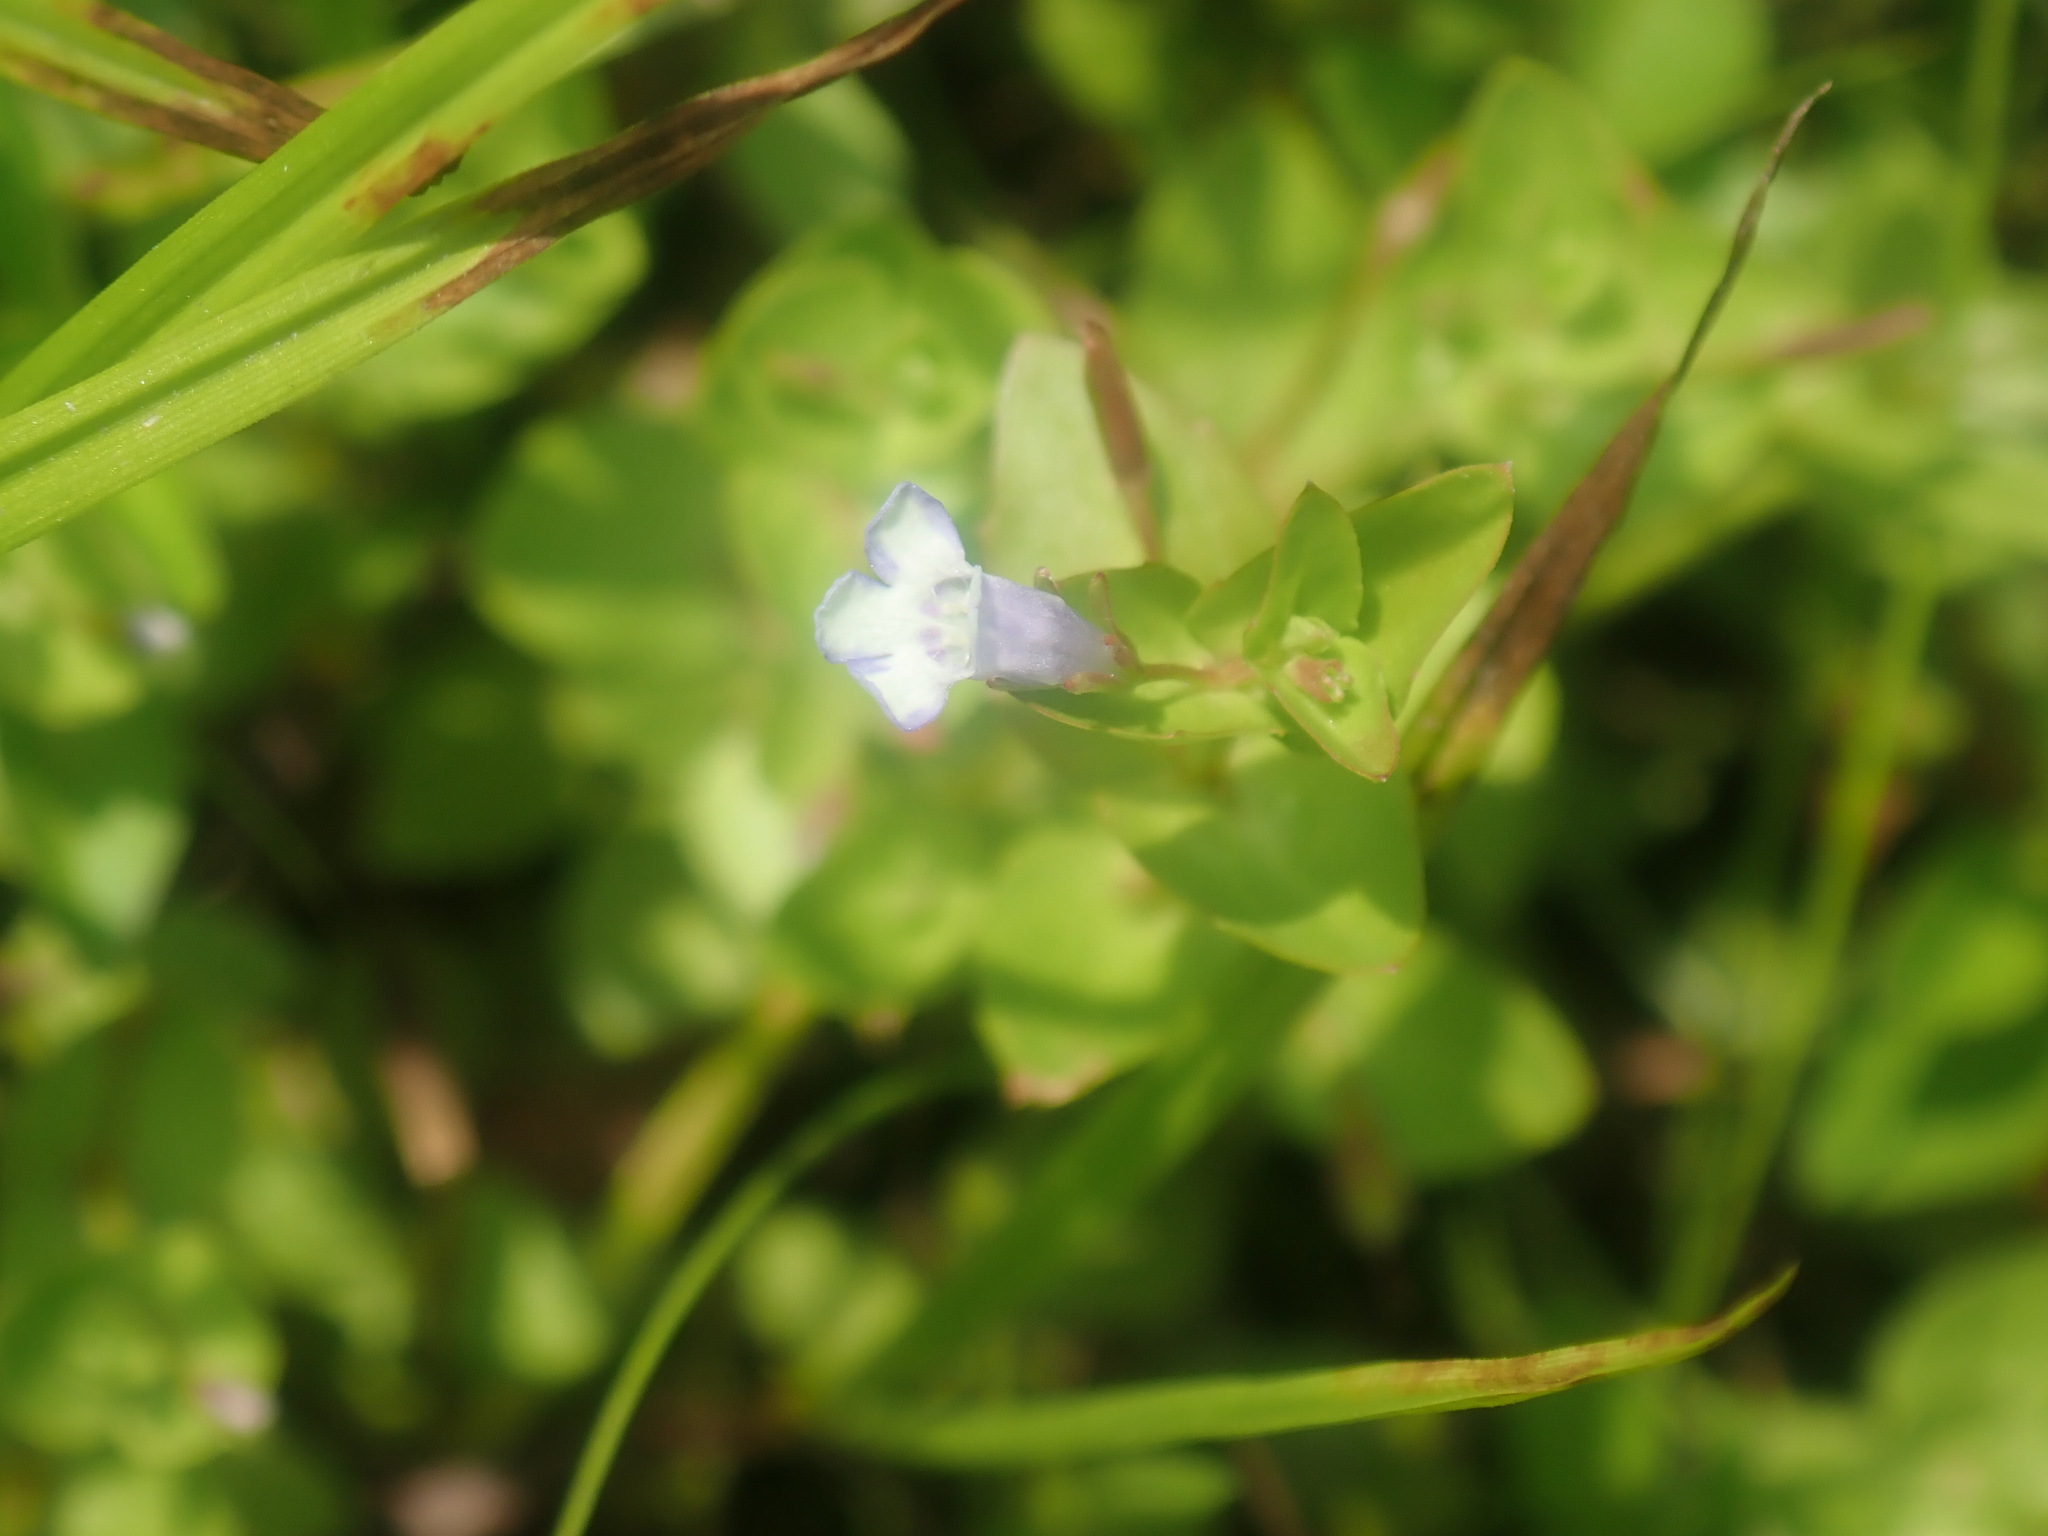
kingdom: Plantae
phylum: Tracheophyta
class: Magnoliopsida
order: Lamiales
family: Linderniaceae
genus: Lindernia
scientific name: Lindernia dubia
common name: Annual false pimpernel
